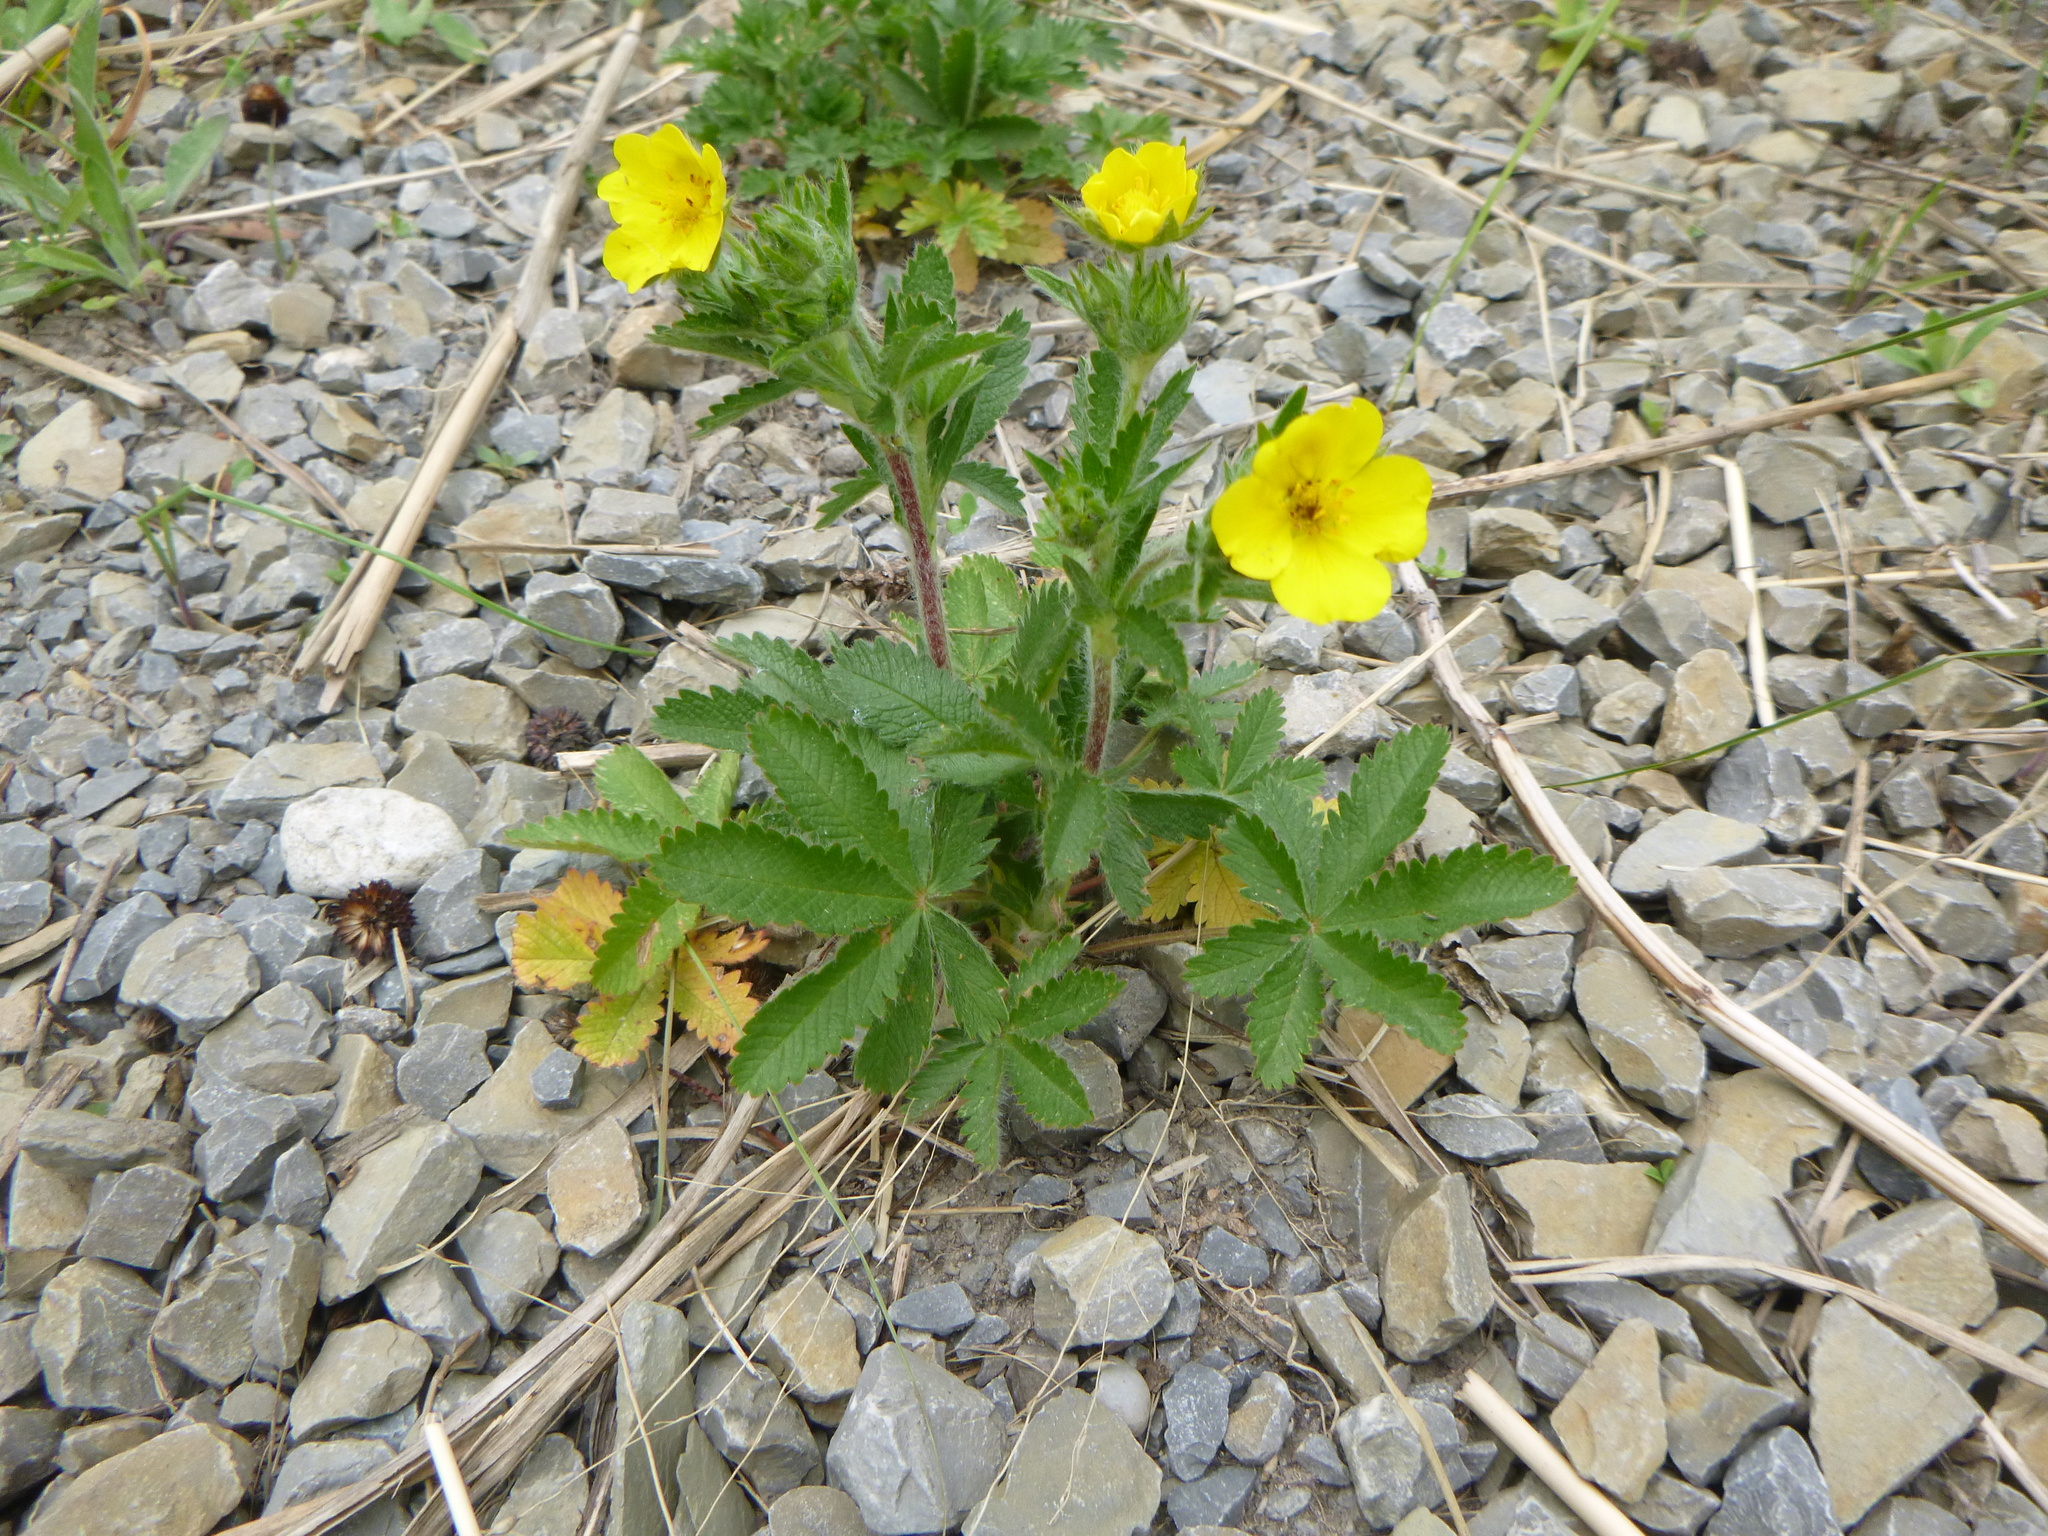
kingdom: Plantae
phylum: Tracheophyta
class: Magnoliopsida
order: Rosales
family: Rosaceae
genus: Potentilla
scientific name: Potentilla reptans
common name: Creeping cinquefoil
